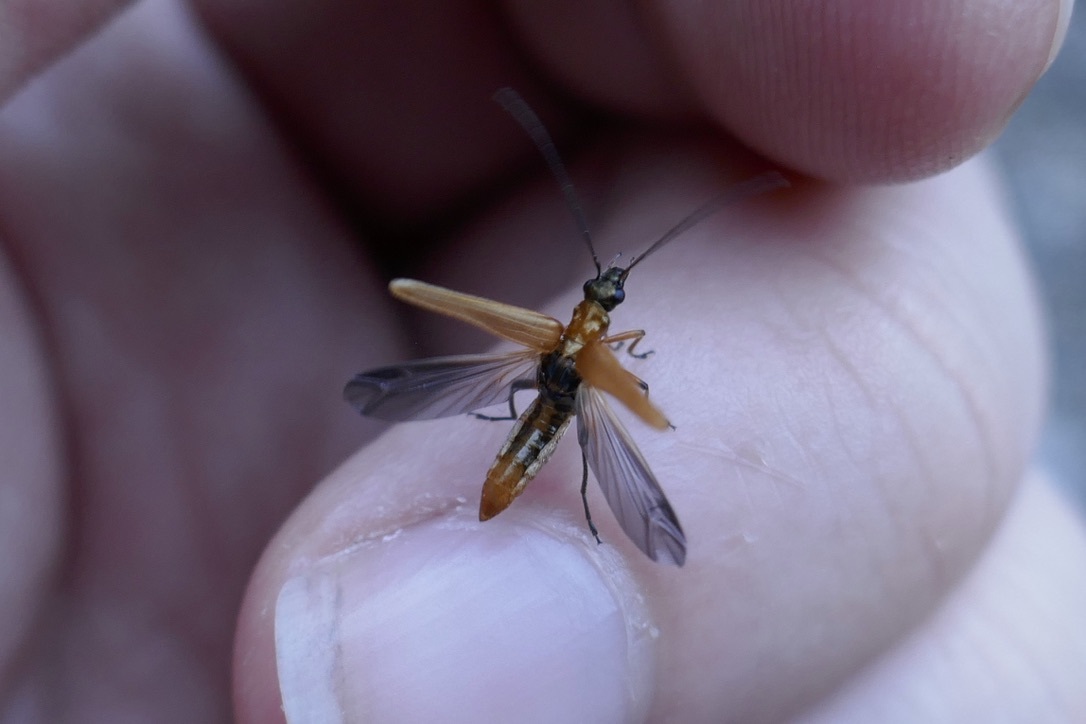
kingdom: Animalia
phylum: Arthropoda
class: Insecta
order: Coleoptera
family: Oedemeridae
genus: Oedemera
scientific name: Oedemera podagrariae
